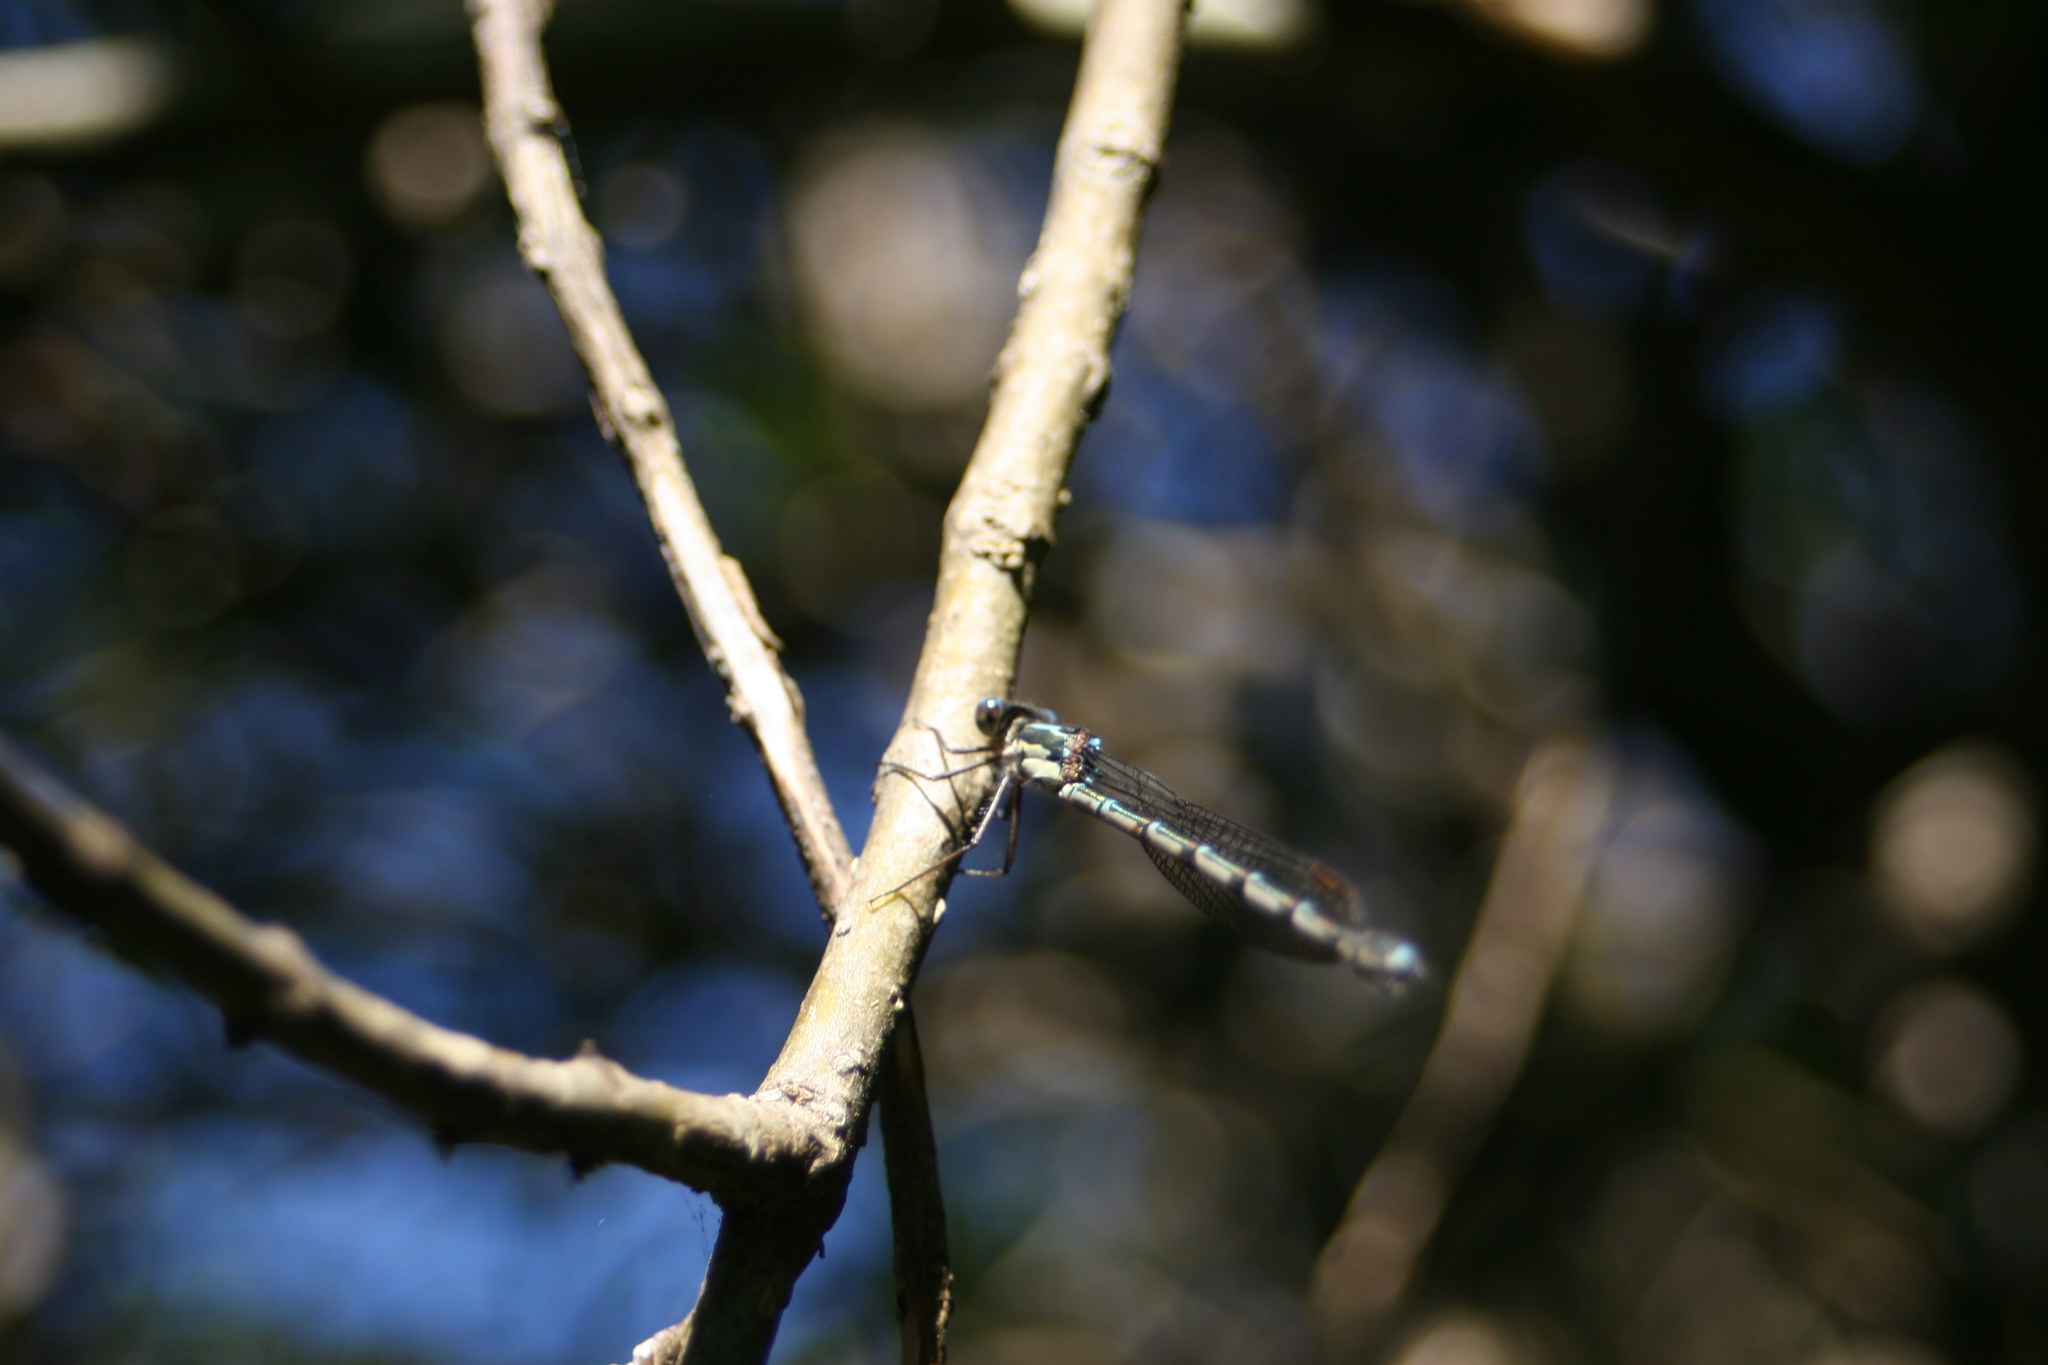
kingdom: Animalia
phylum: Arthropoda
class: Insecta
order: Odonata
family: Lestidae
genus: Austrolestes
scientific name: Austrolestes colensonis
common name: Blue damselfly
